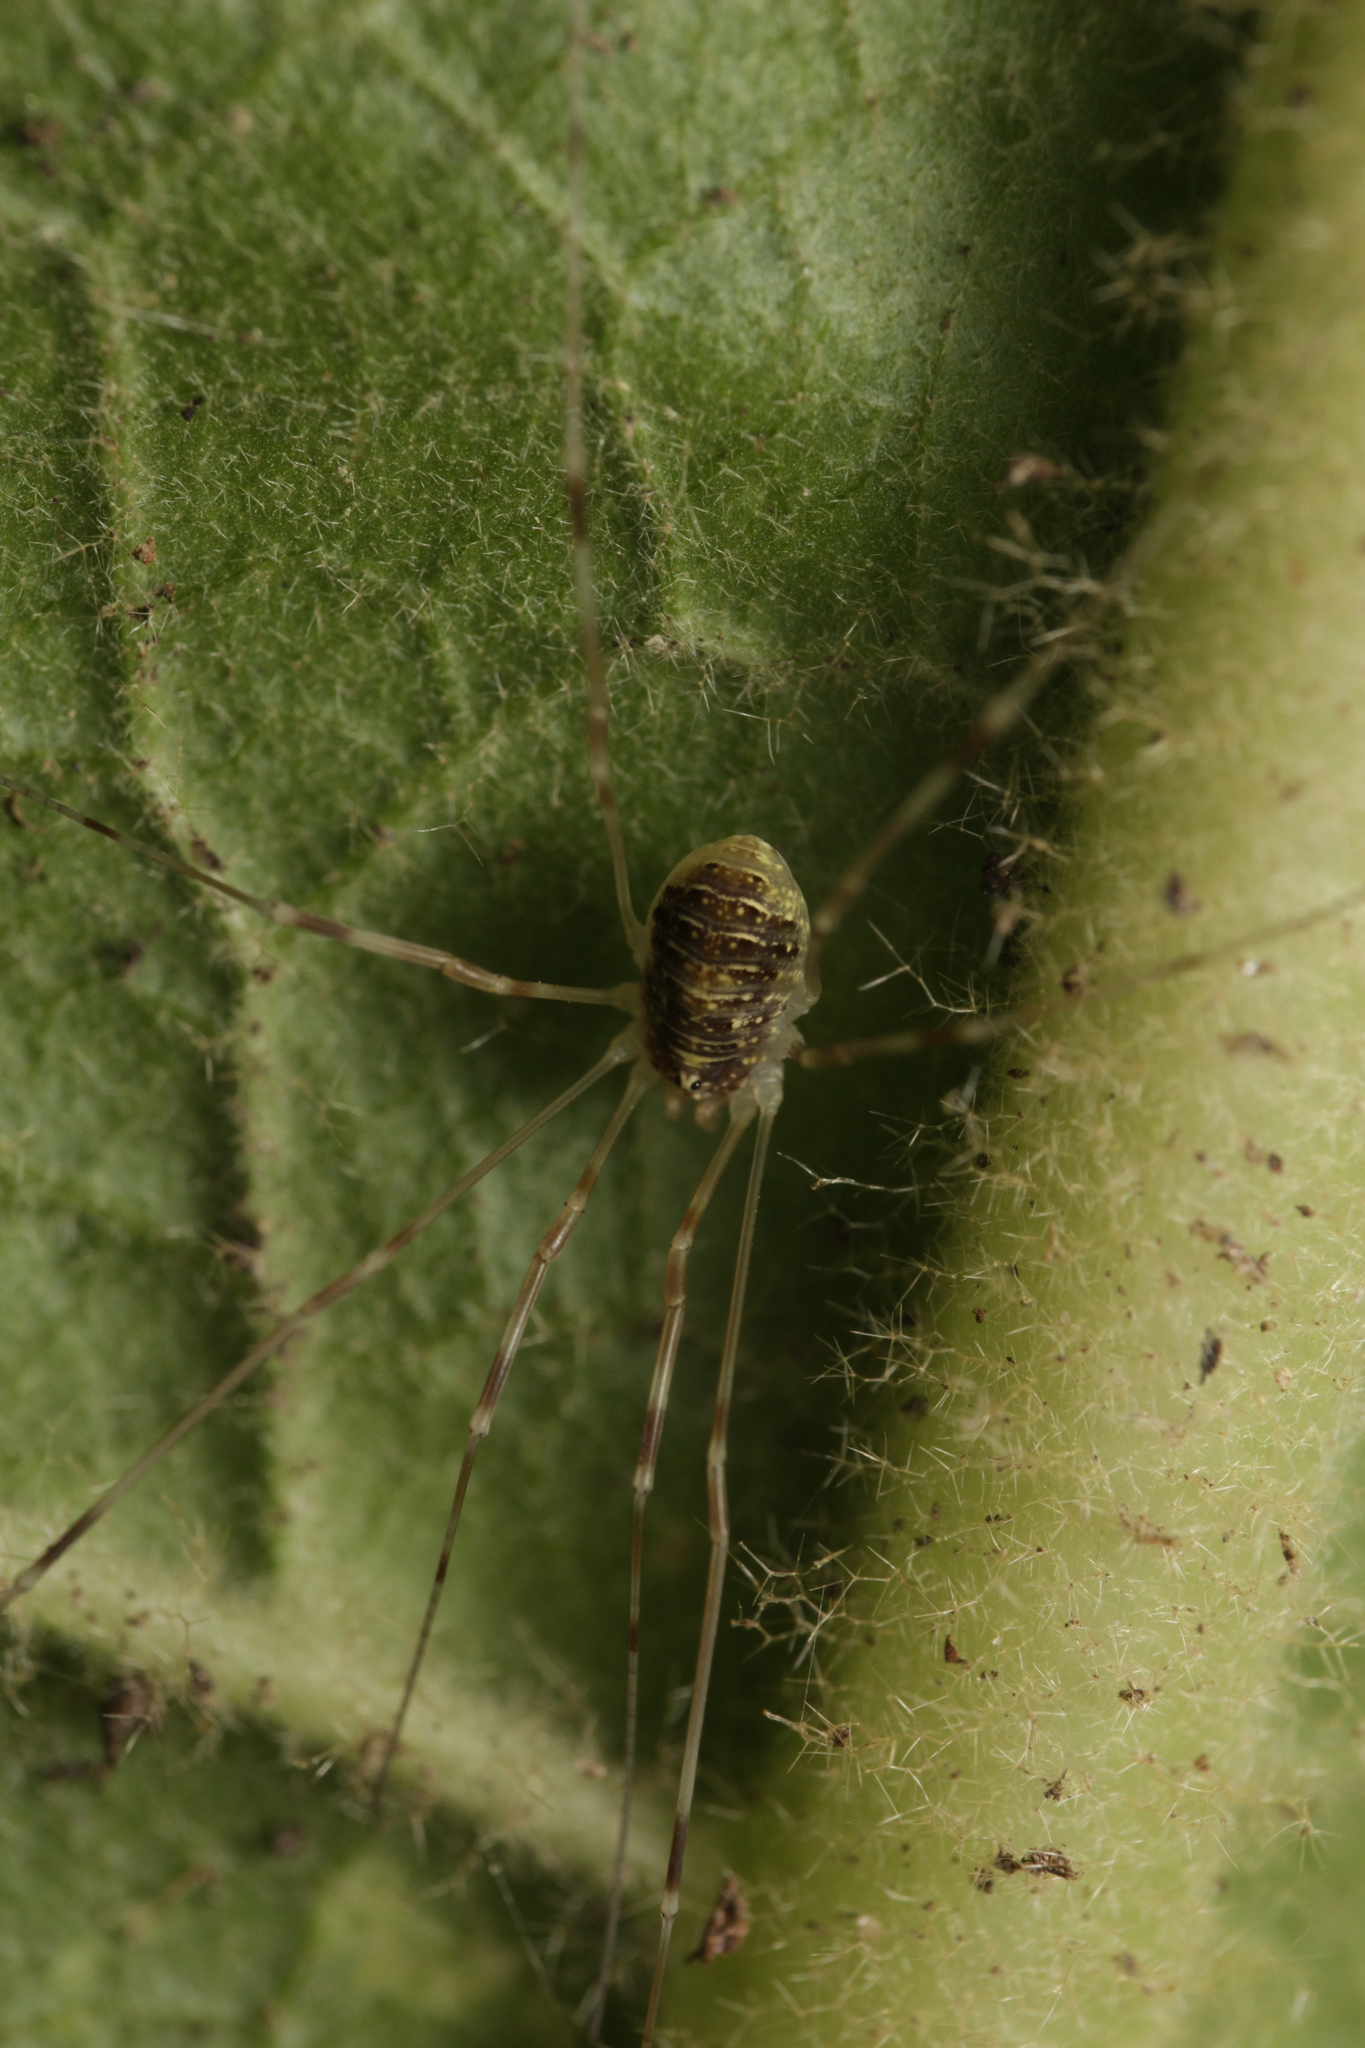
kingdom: Animalia
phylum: Arthropoda
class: Arachnida
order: Opiliones
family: Phalangiidae
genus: Opilio
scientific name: Opilio canestrinii
